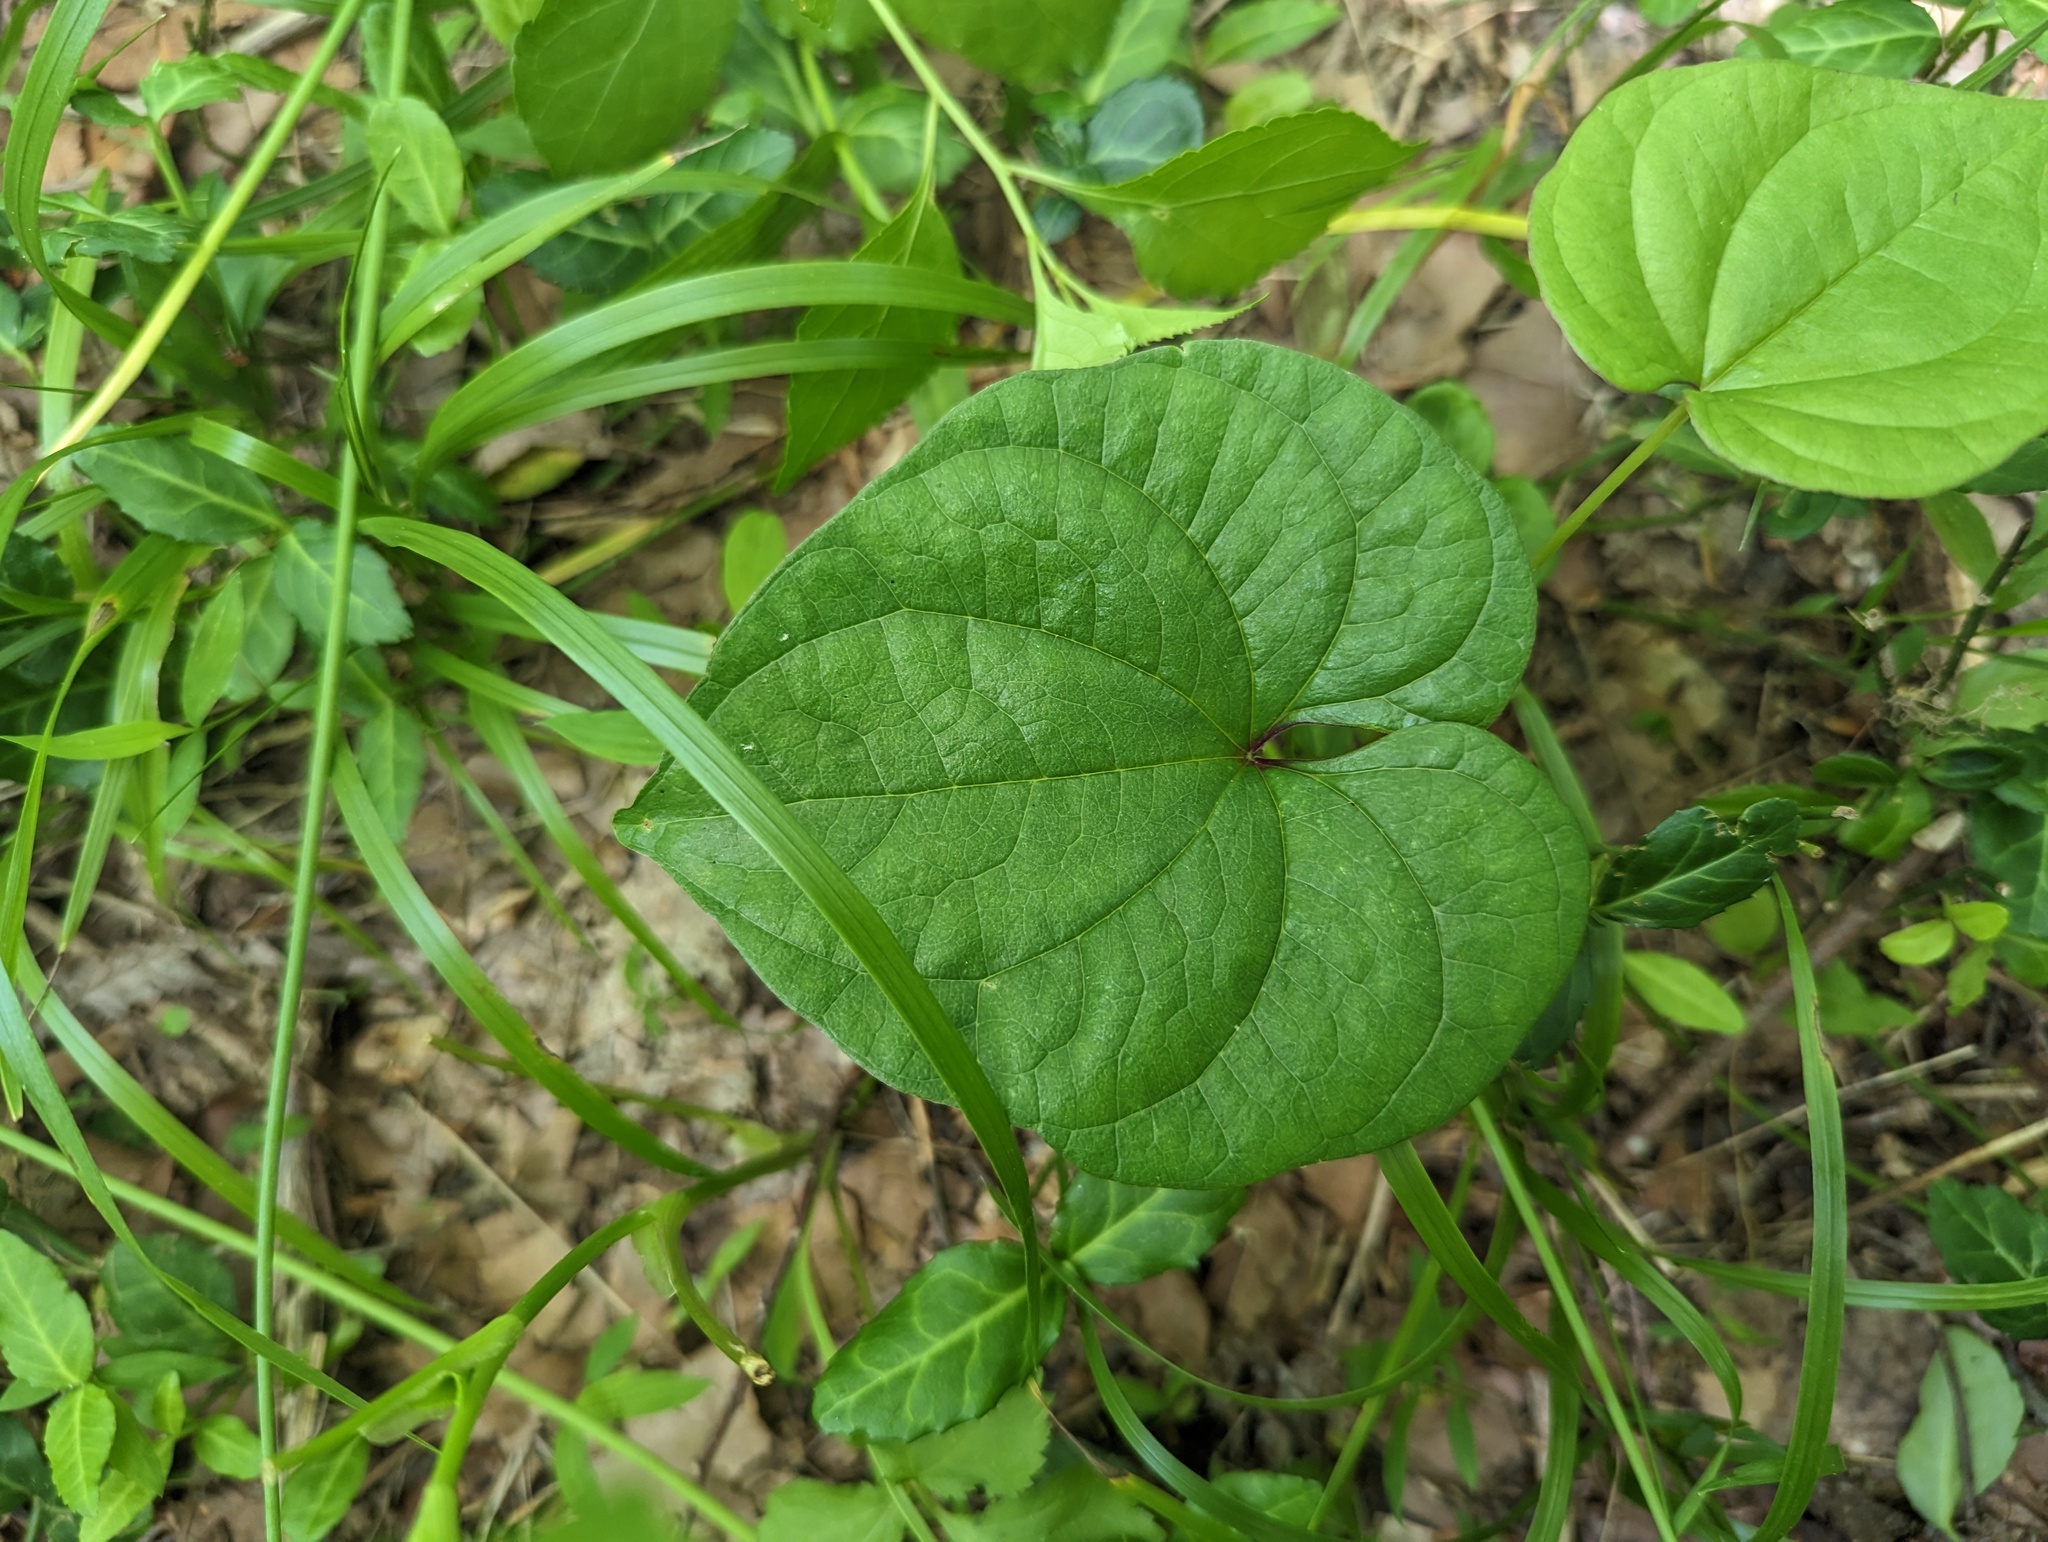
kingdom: Plantae
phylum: Tracheophyta
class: Liliopsida
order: Dioscoreales
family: Dioscoreaceae
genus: Dioscorea
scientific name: Dioscorea polystachya
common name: Chinese yam
